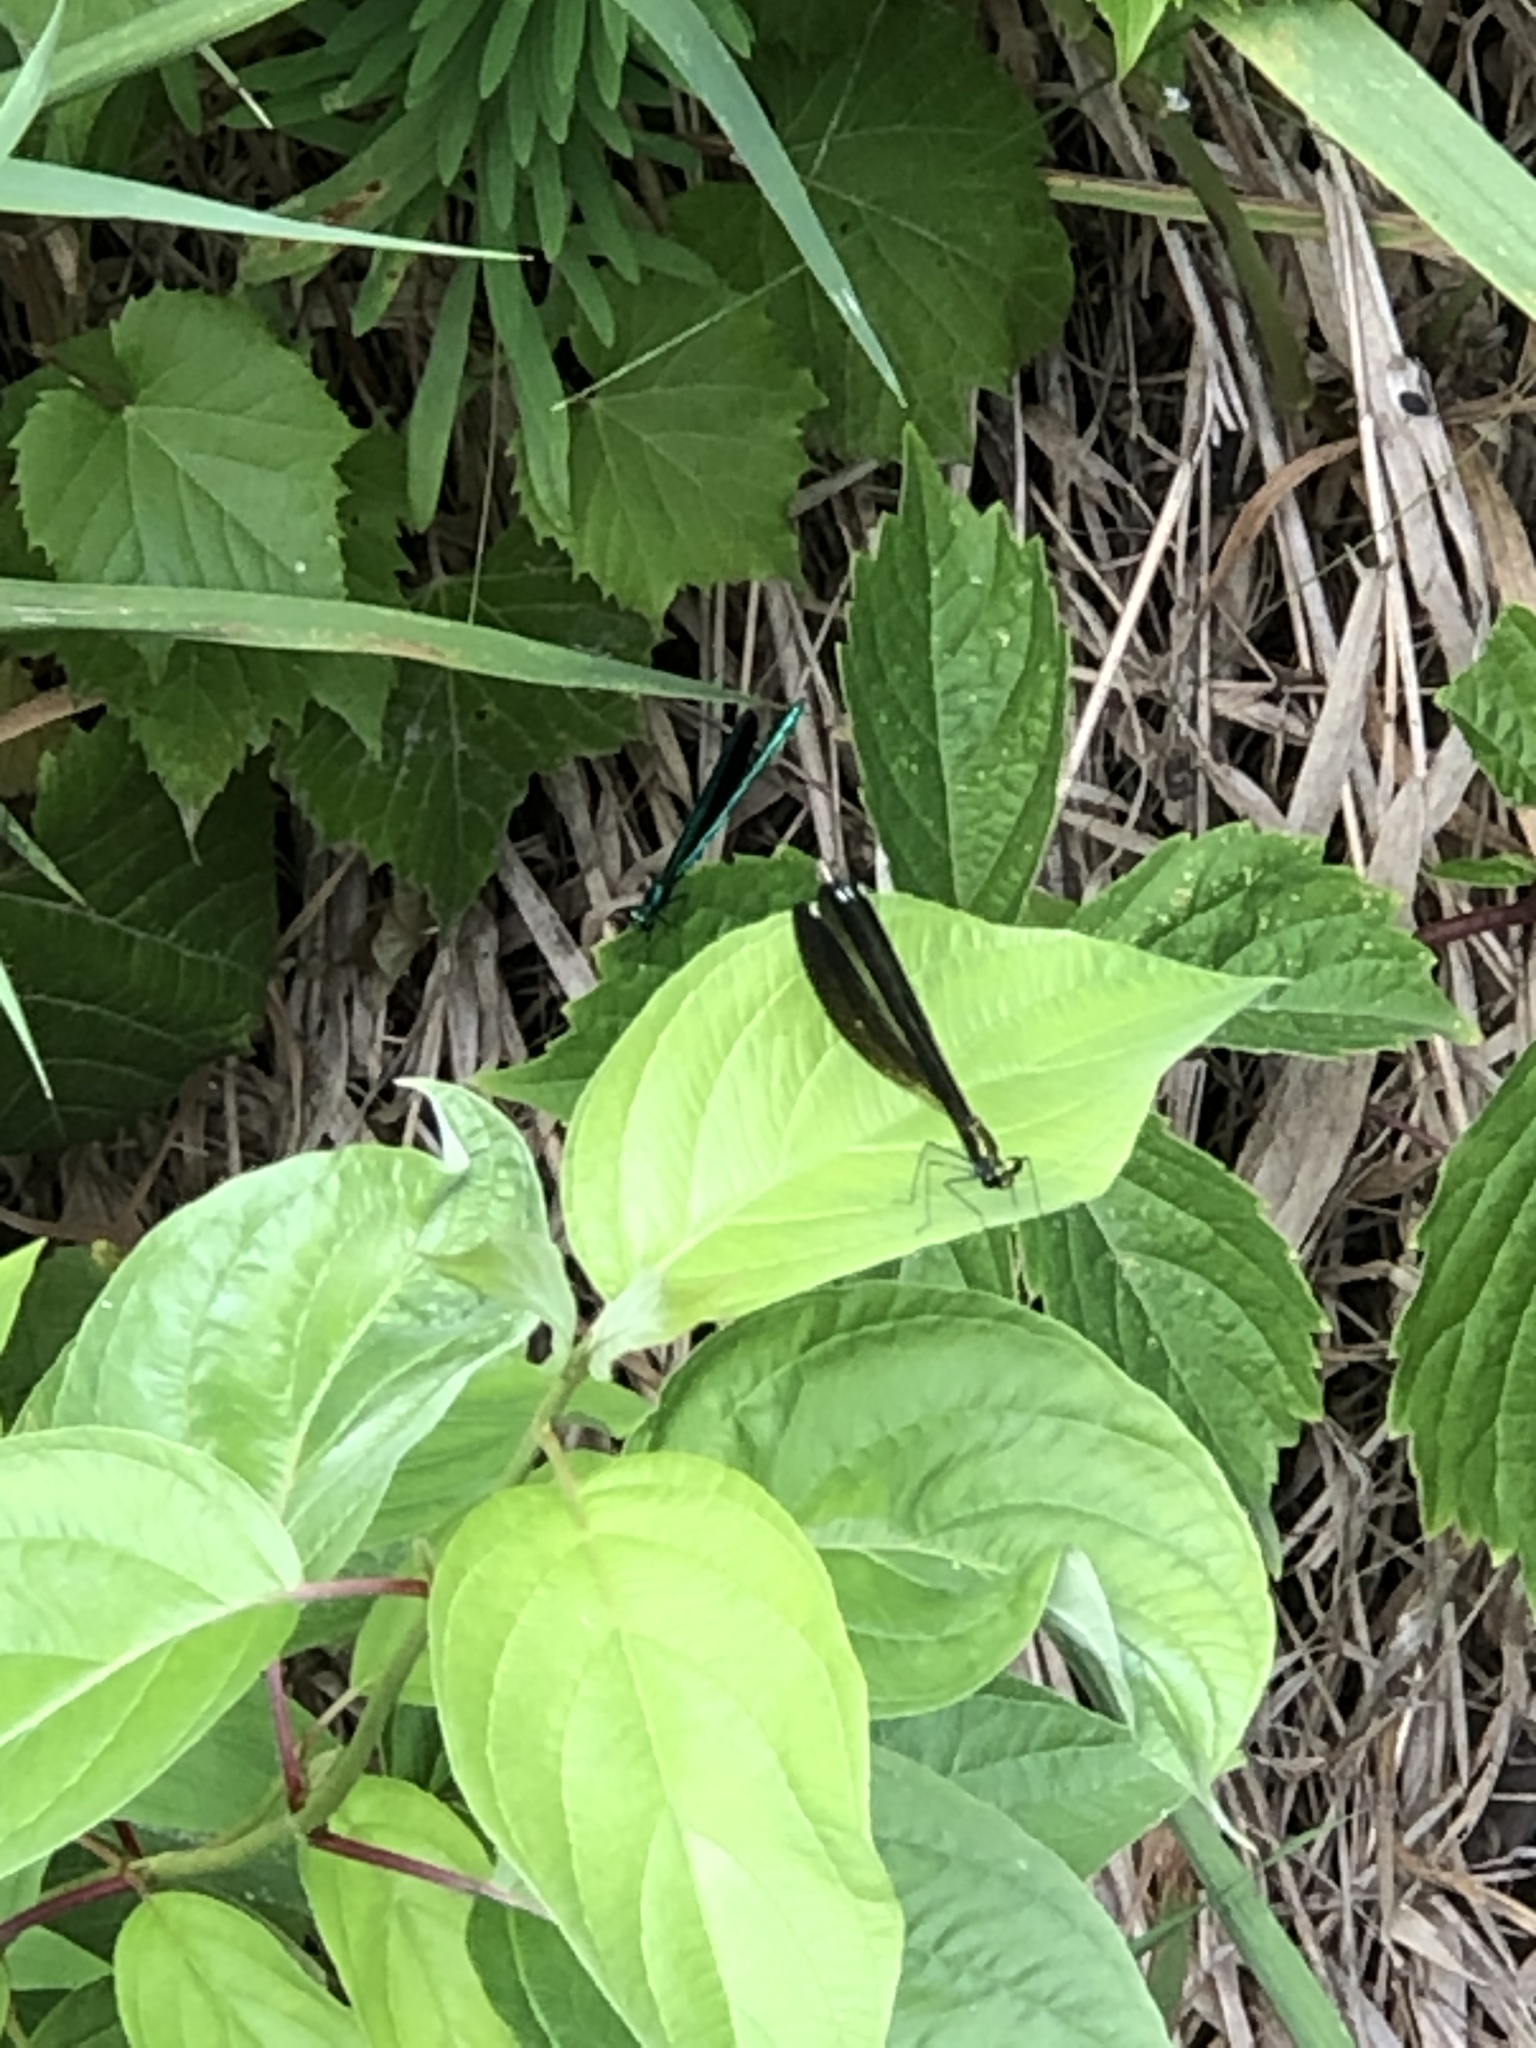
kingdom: Animalia
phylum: Arthropoda
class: Insecta
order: Odonata
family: Calopterygidae
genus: Calopteryx
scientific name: Calopteryx maculata
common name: Ebony jewelwing
